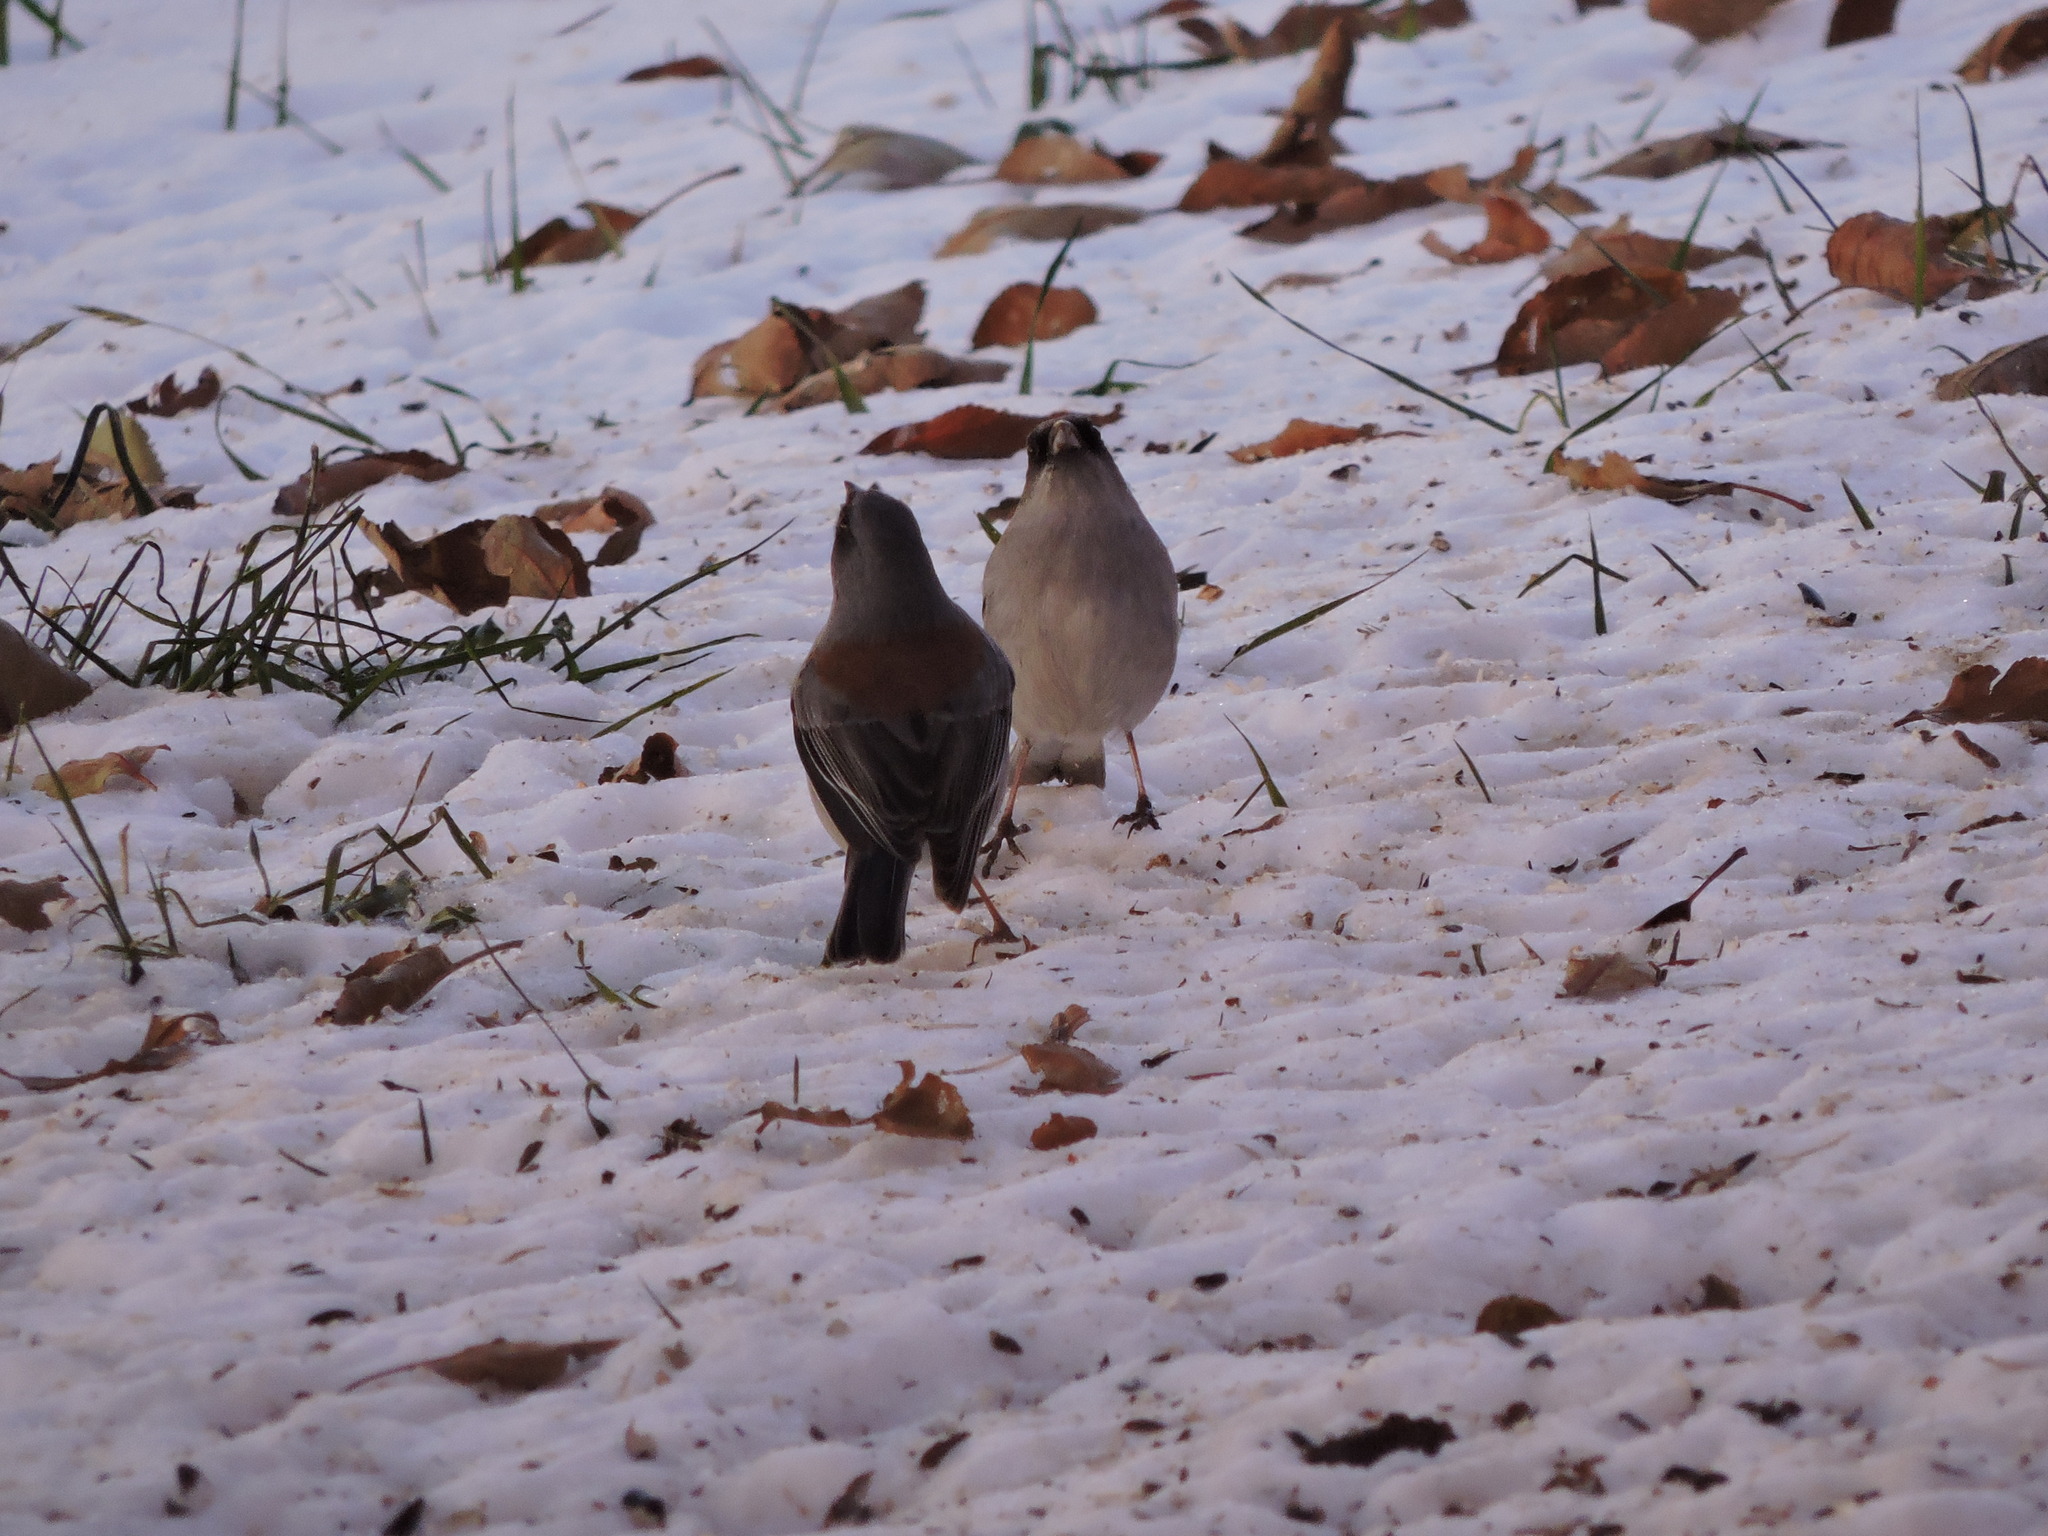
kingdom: Animalia
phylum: Chordata
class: Aves
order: Passeriformes
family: Passerellidae
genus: Junco
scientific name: Junco hyemalis
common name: Dark-eyed junco
